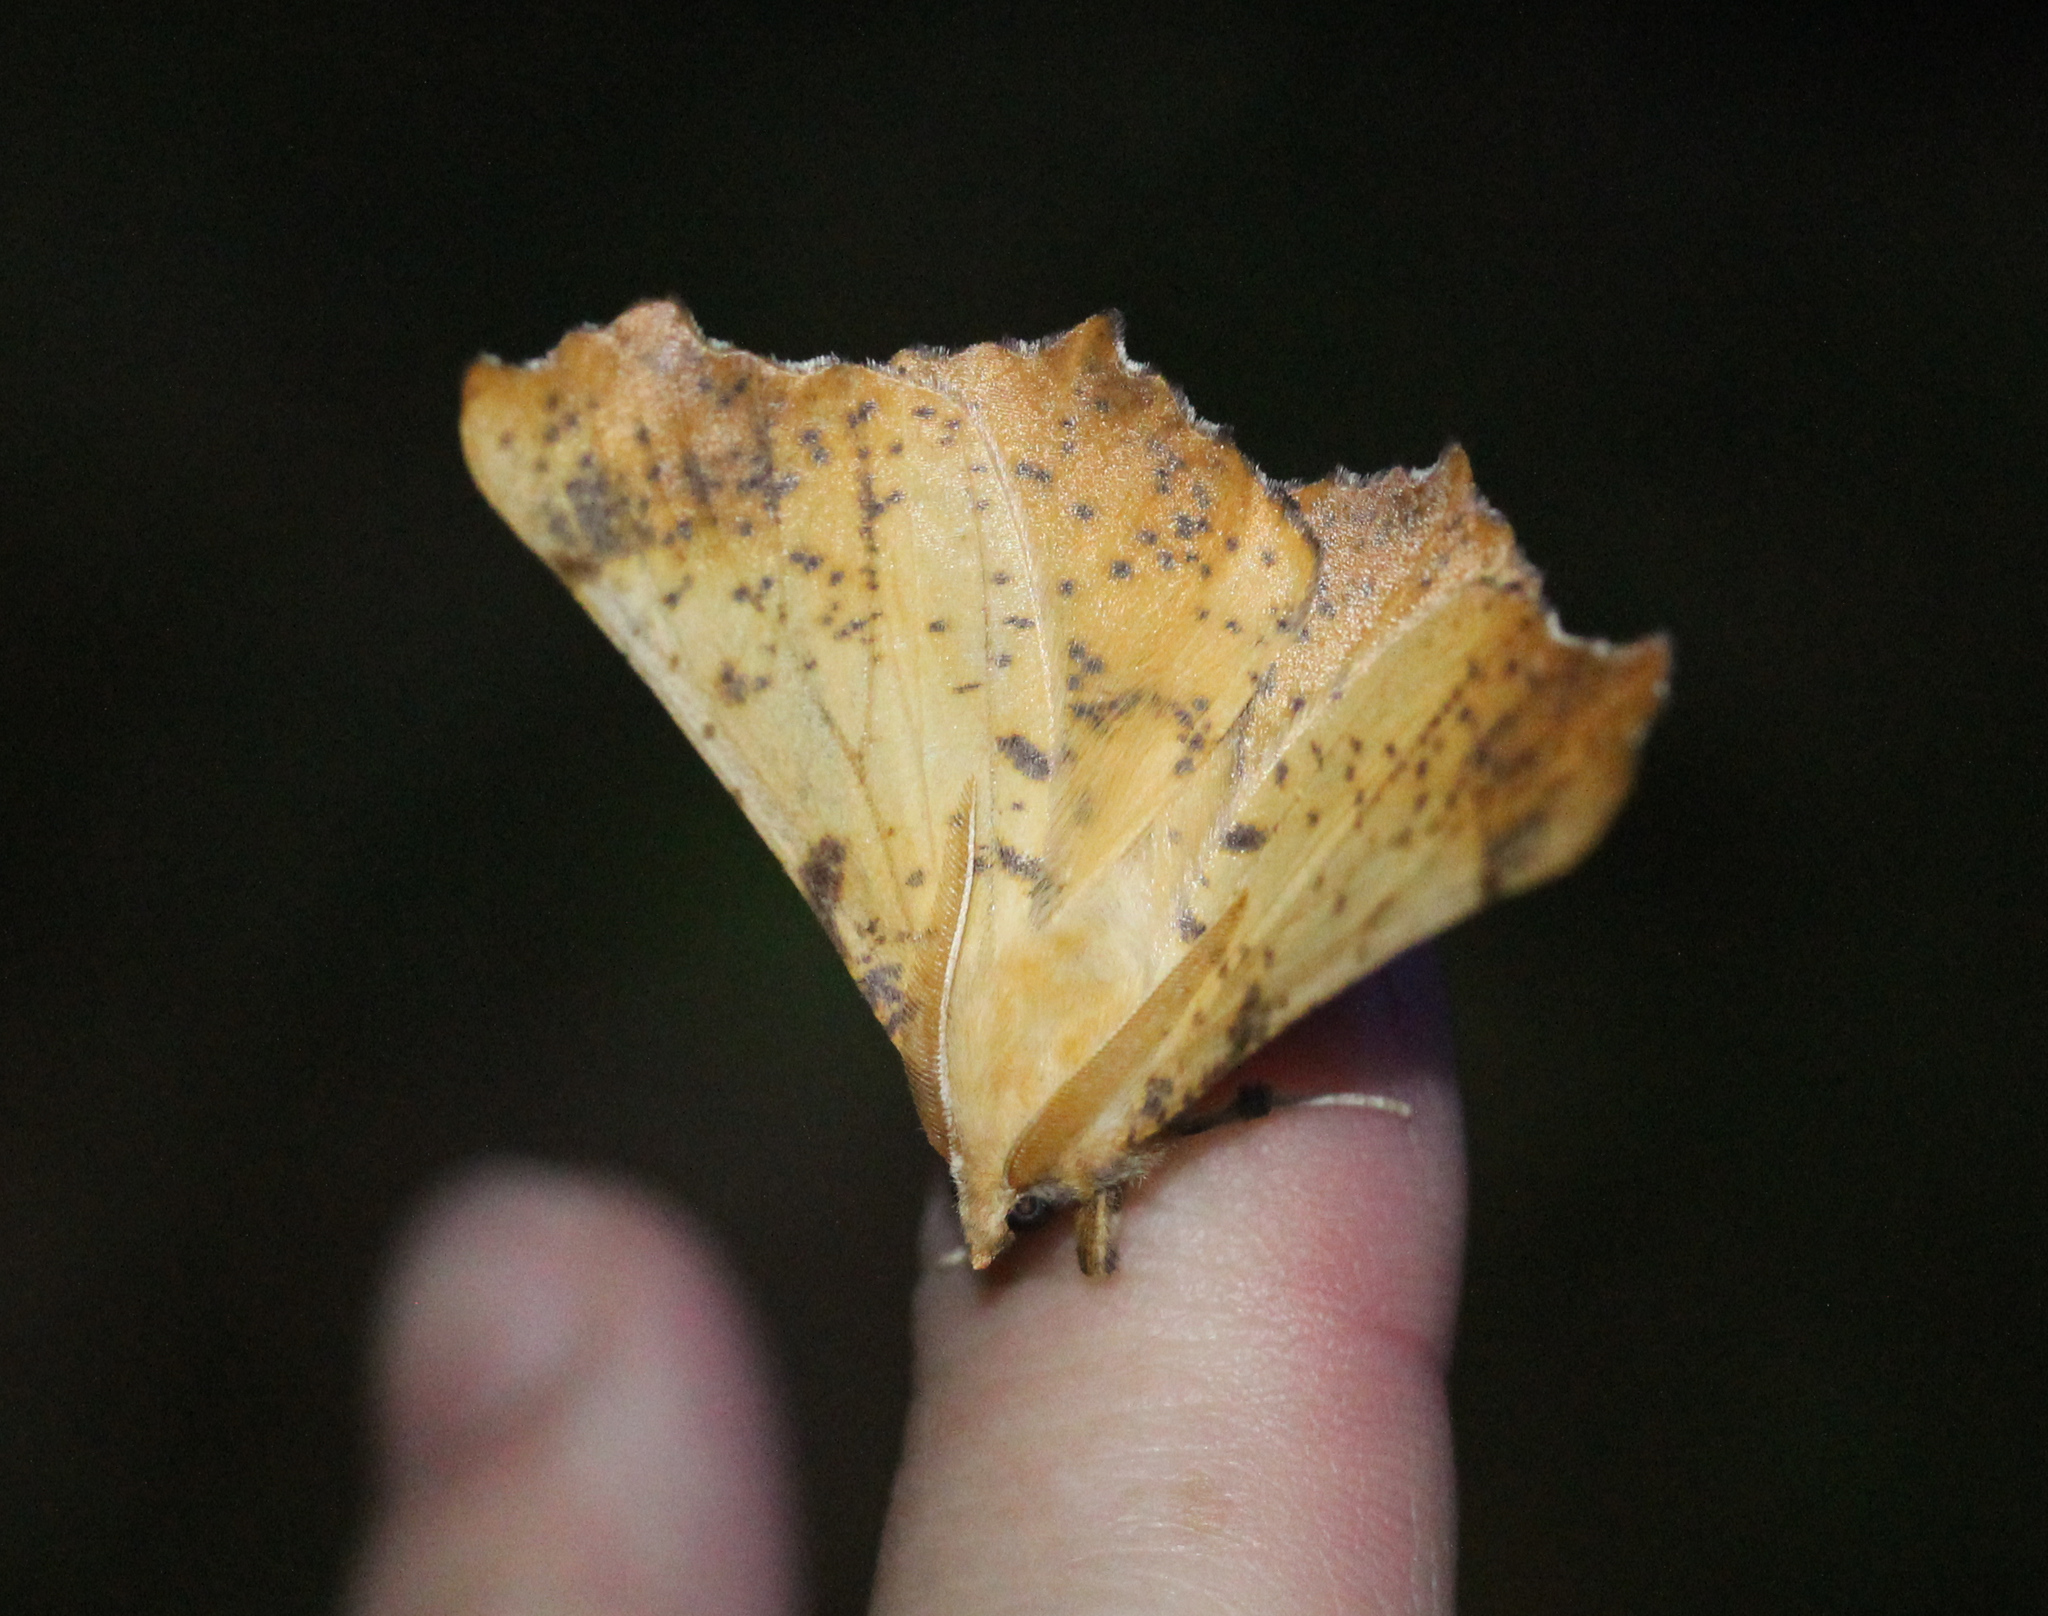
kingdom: Animalia
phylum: Arthropoda
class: Insecta
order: Lepidoptera
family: Geometridae
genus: Ennomos
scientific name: Ennomos magnaria
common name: Maple spanworm
